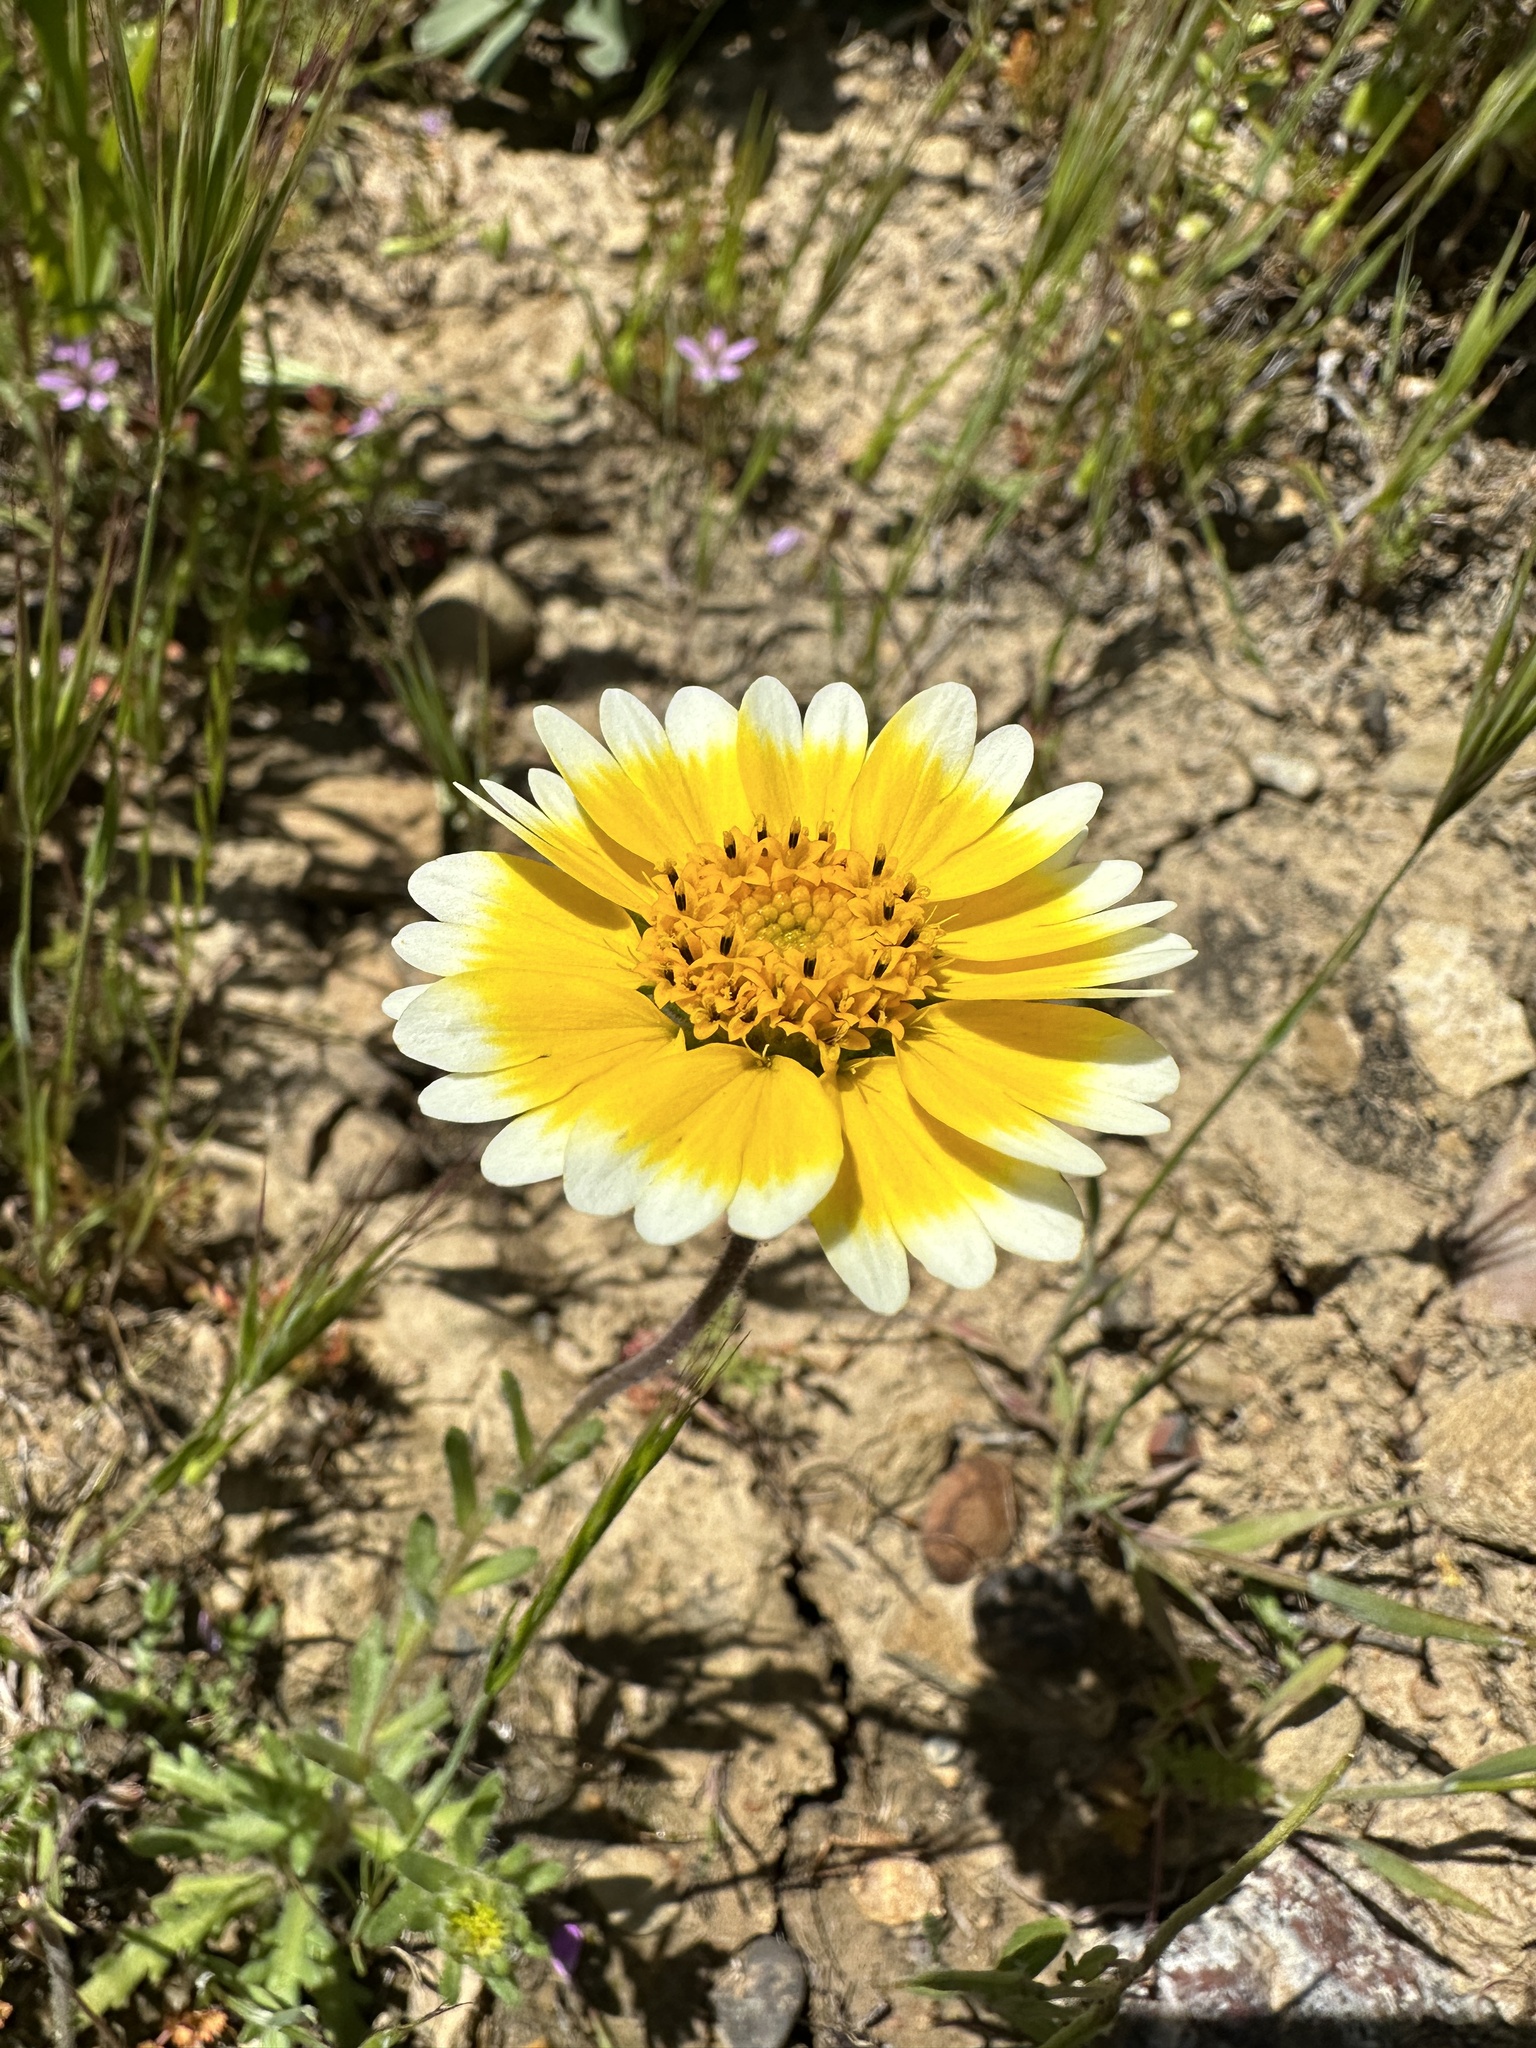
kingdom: Plantae
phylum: Tracheophyta
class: Magnoliopsida
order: Asterales
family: Asteraceae
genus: Layia
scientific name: Layia platyglossa
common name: Tidy-tips
